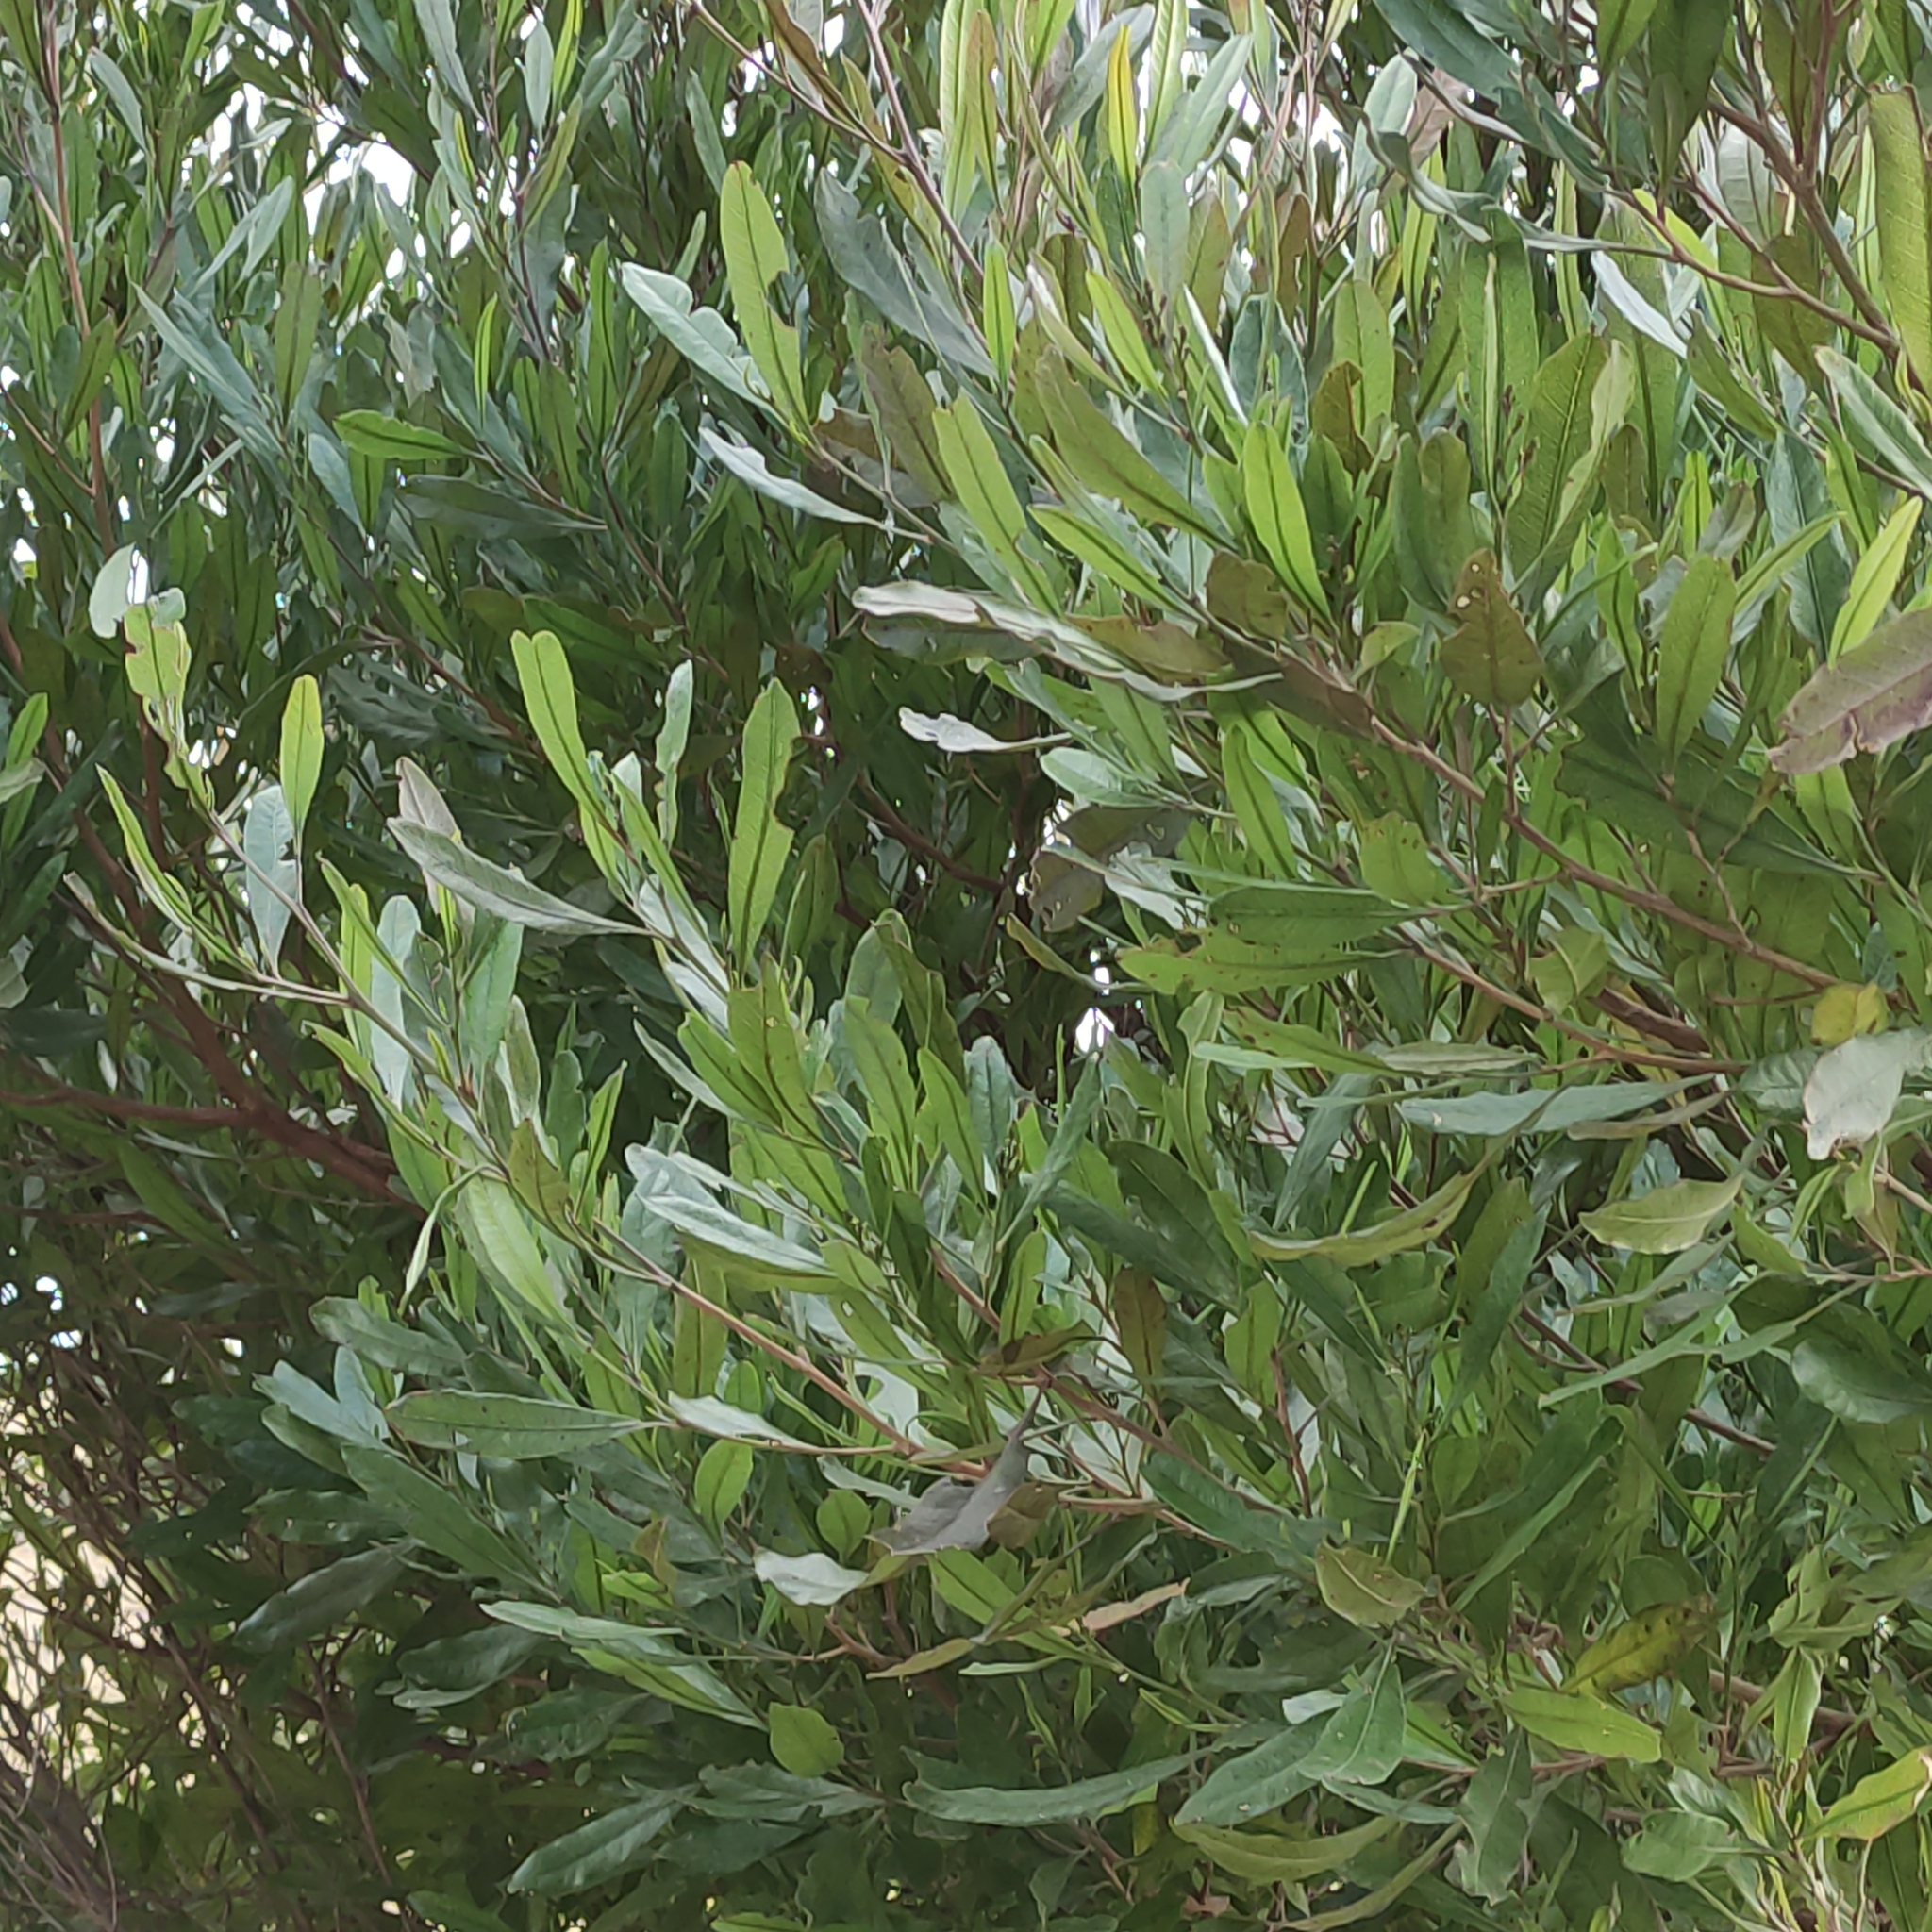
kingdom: Plantae
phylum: Tracheophyta
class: Magnoliopsida
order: Sapindales
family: Sapindaceae
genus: Dodonaea
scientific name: Dodonaea viscosa
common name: Hopbush
